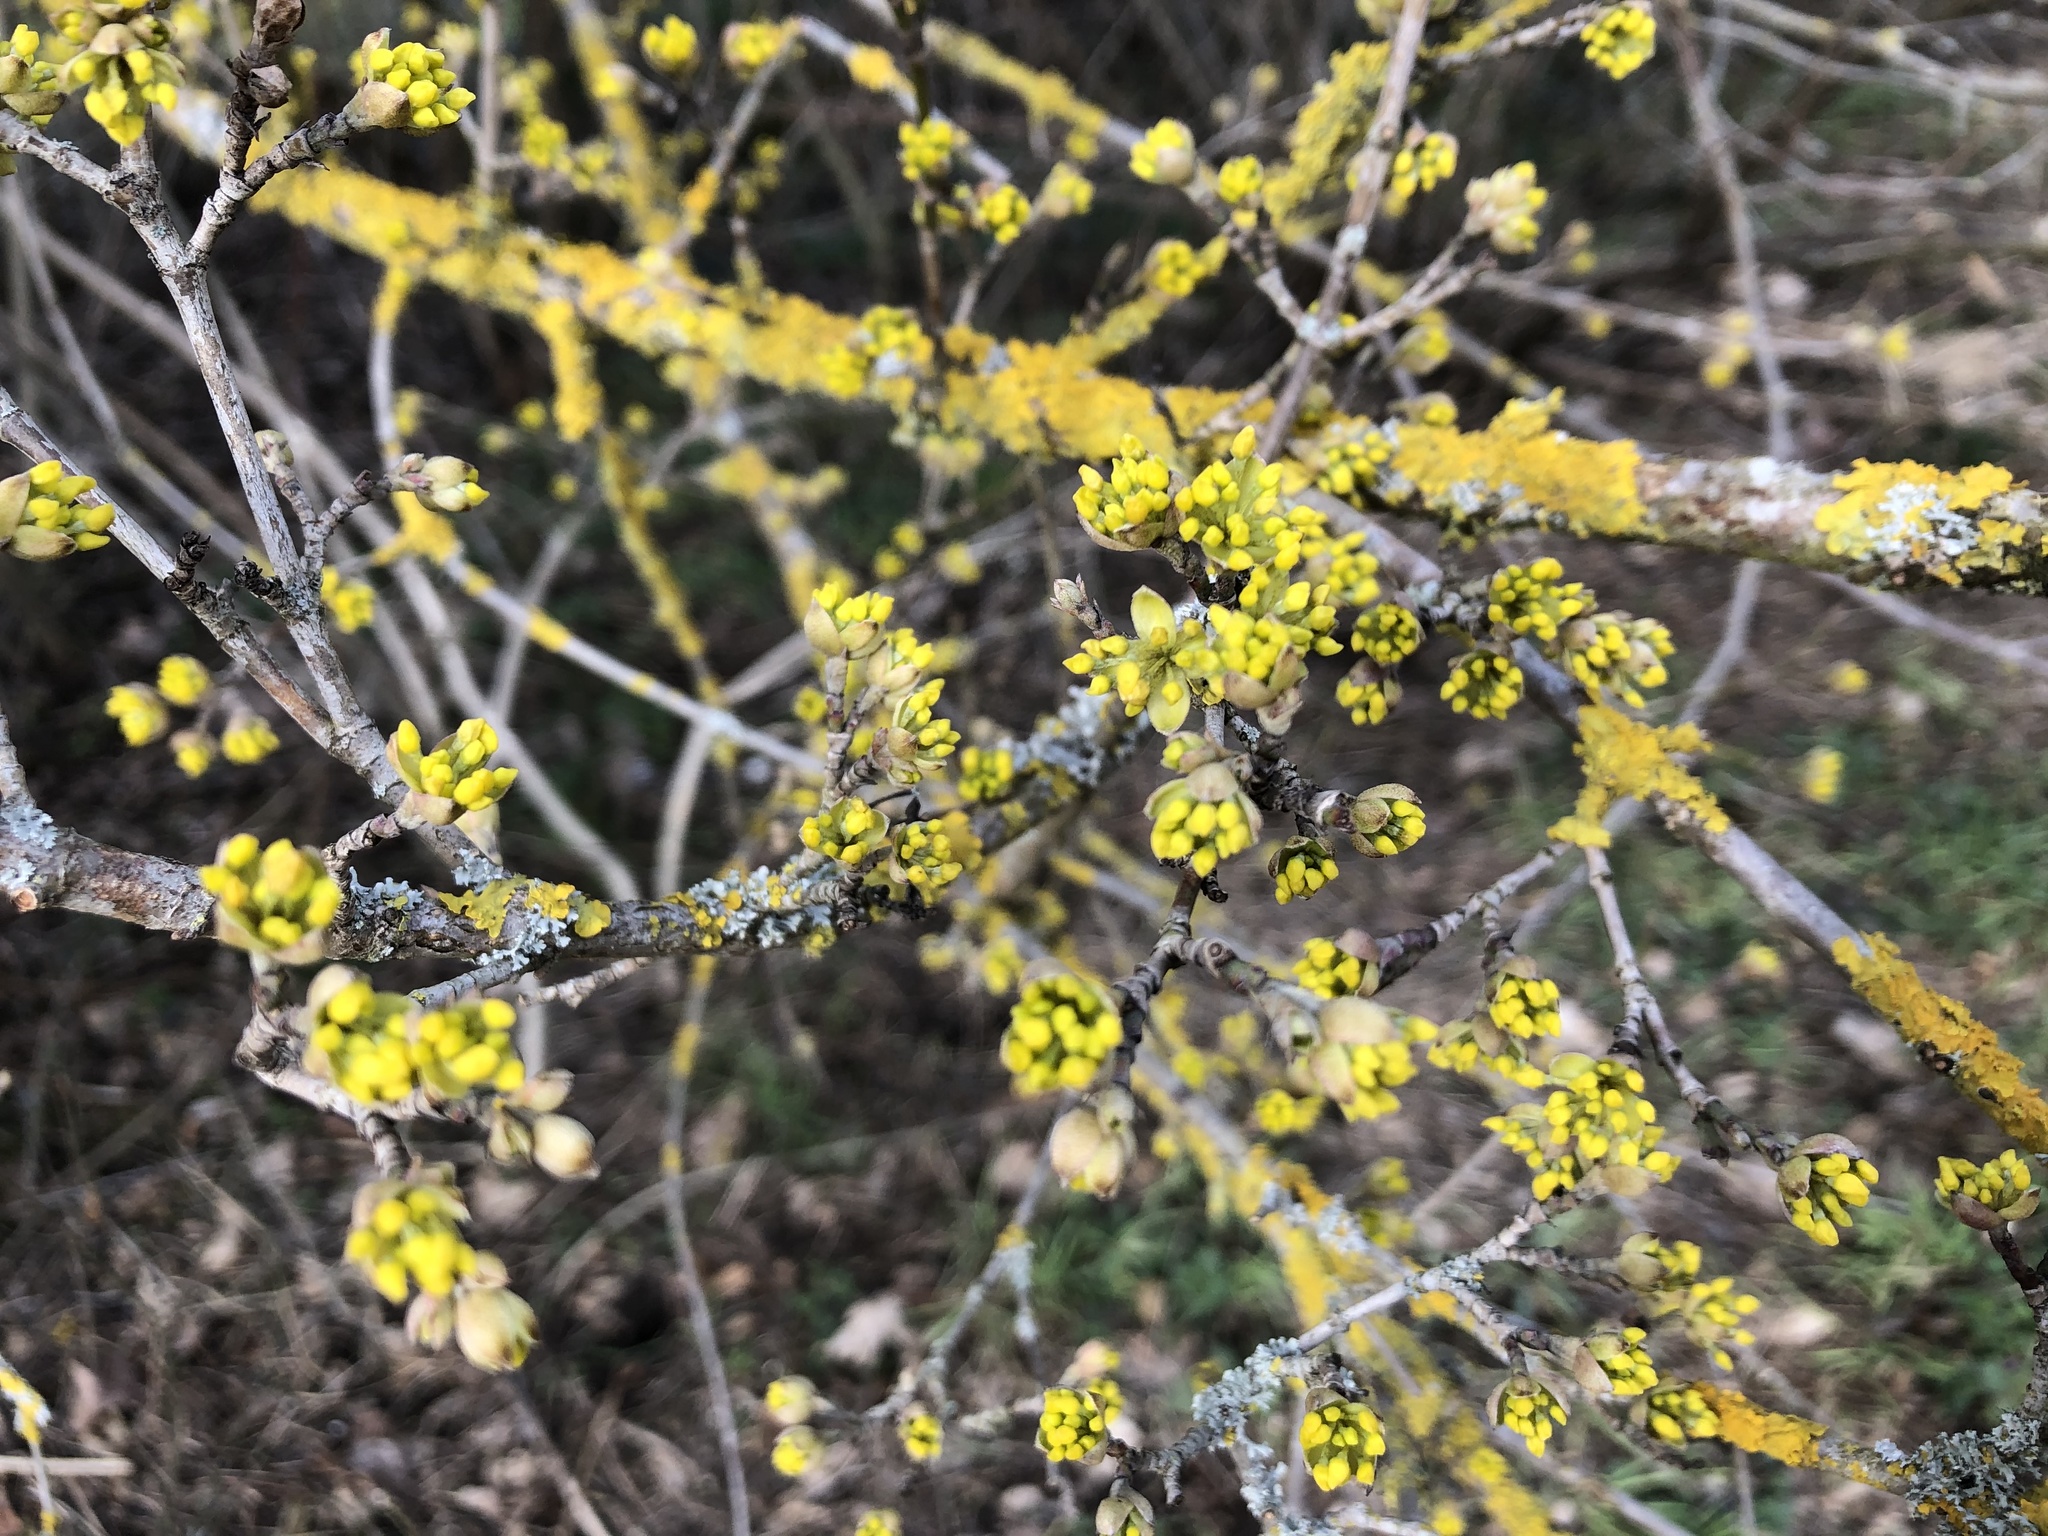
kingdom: Plantae
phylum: Tracheophyta
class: Magnoliopsida
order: Cornales
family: Cornaceae
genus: Cornus
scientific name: Cornus mas
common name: Cornelian-cherry
